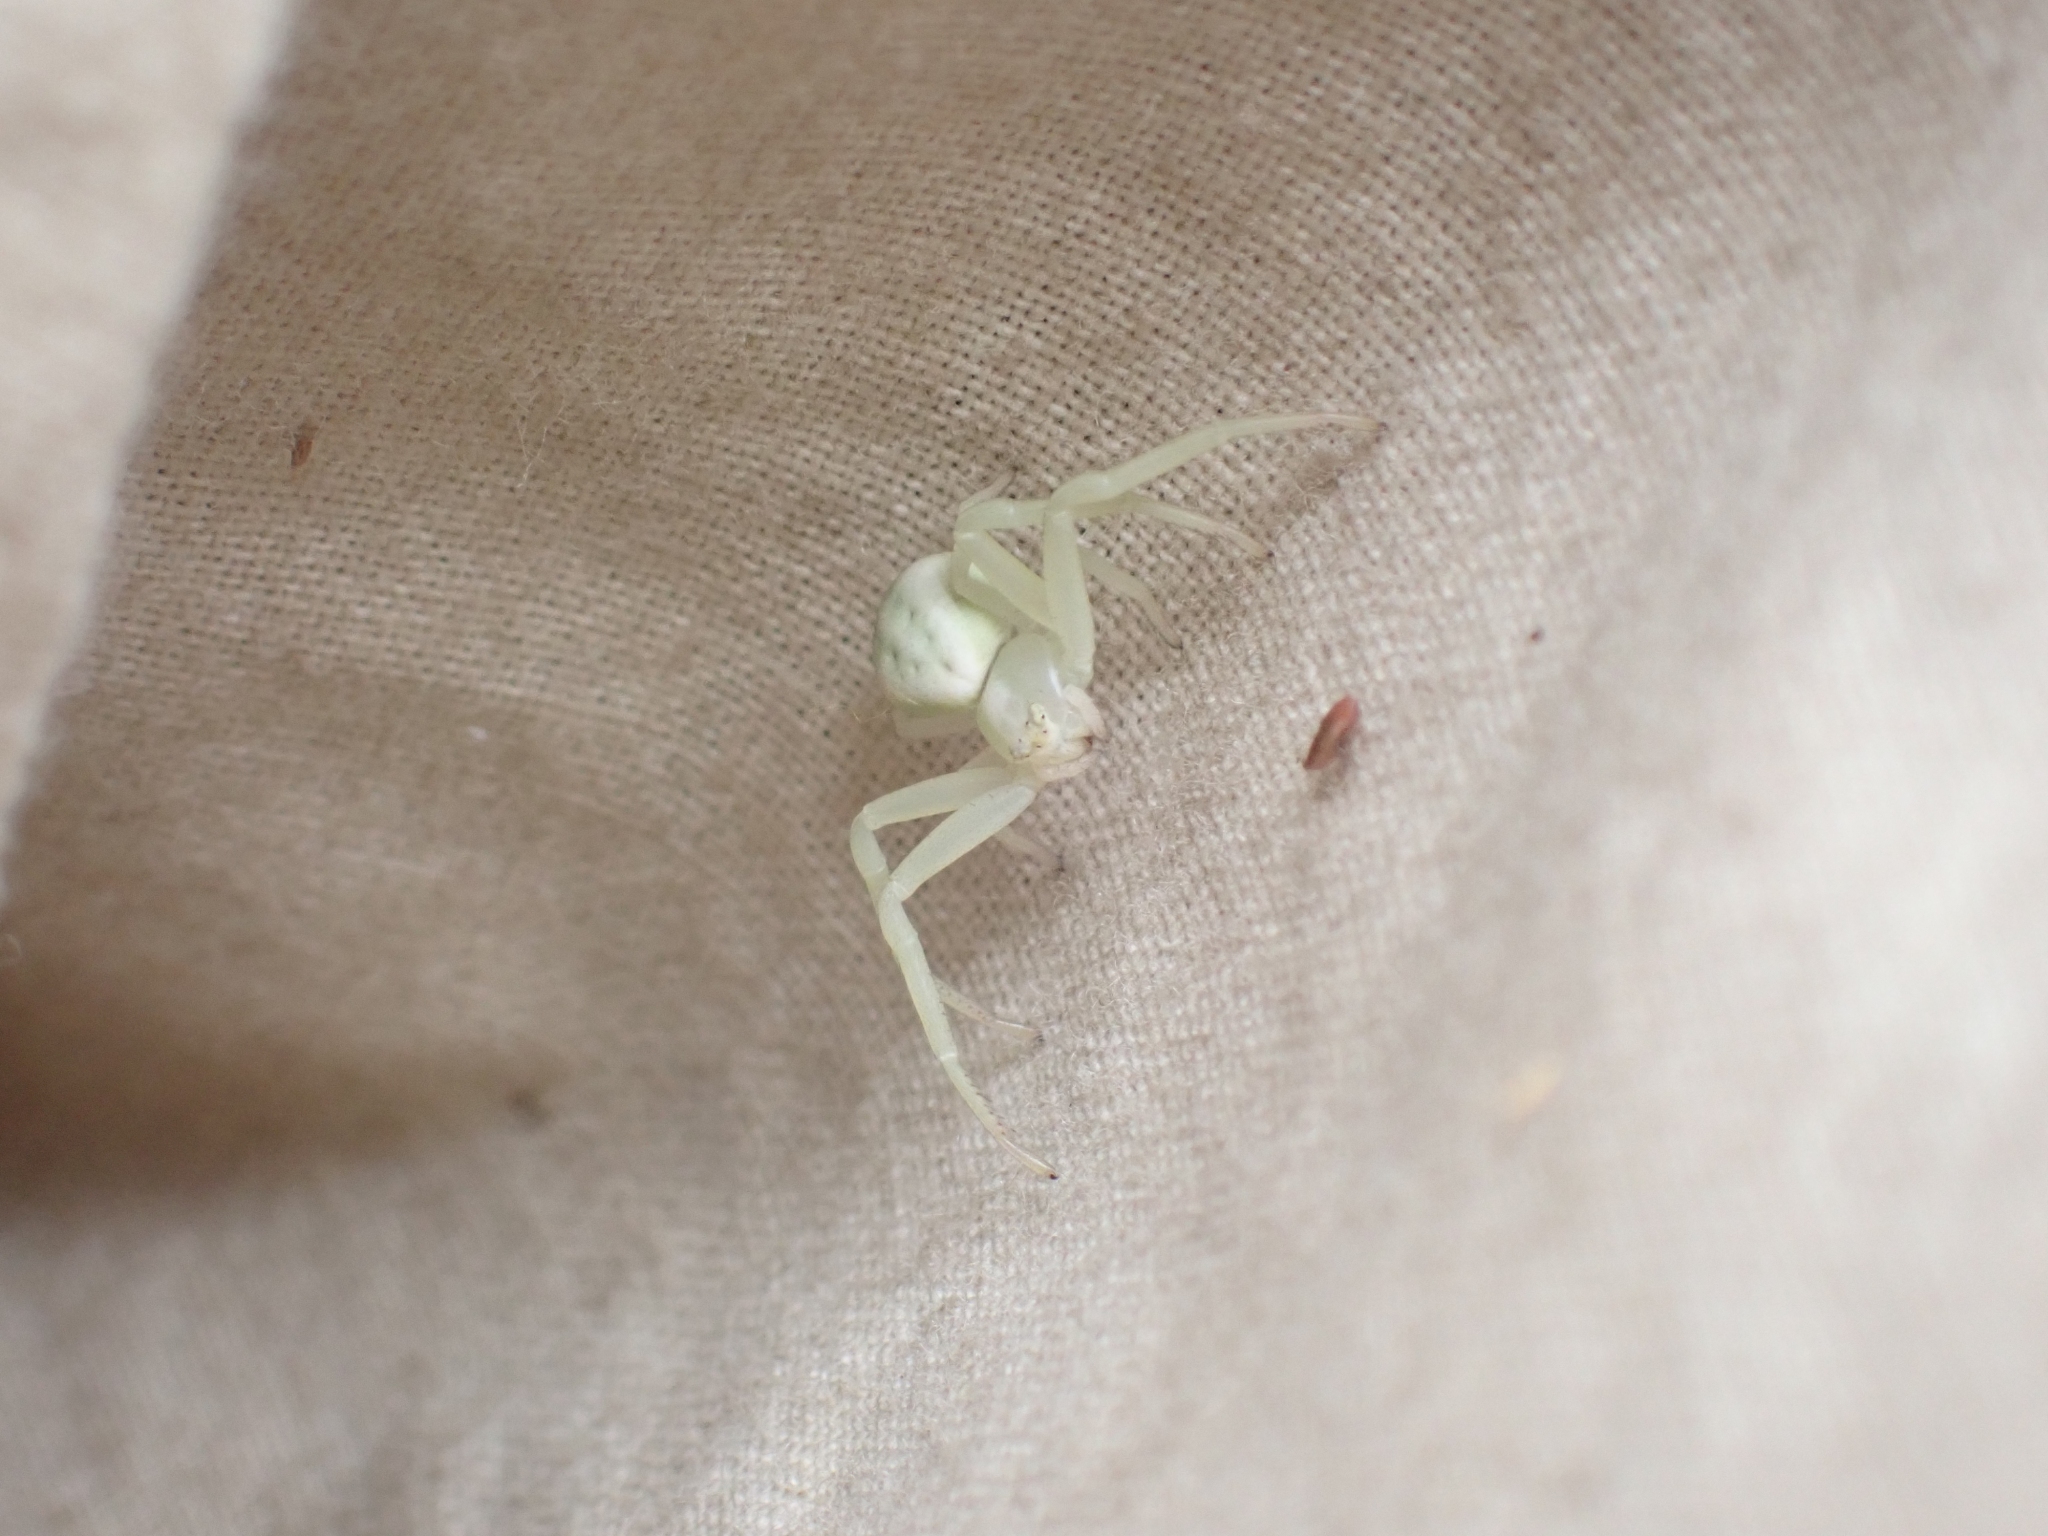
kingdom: Animalia
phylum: Arthropoda
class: Arachnida
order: Araneae
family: Thomisidae
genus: Misumena
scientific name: Misumena vatia
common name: Goldenrod crab spider
